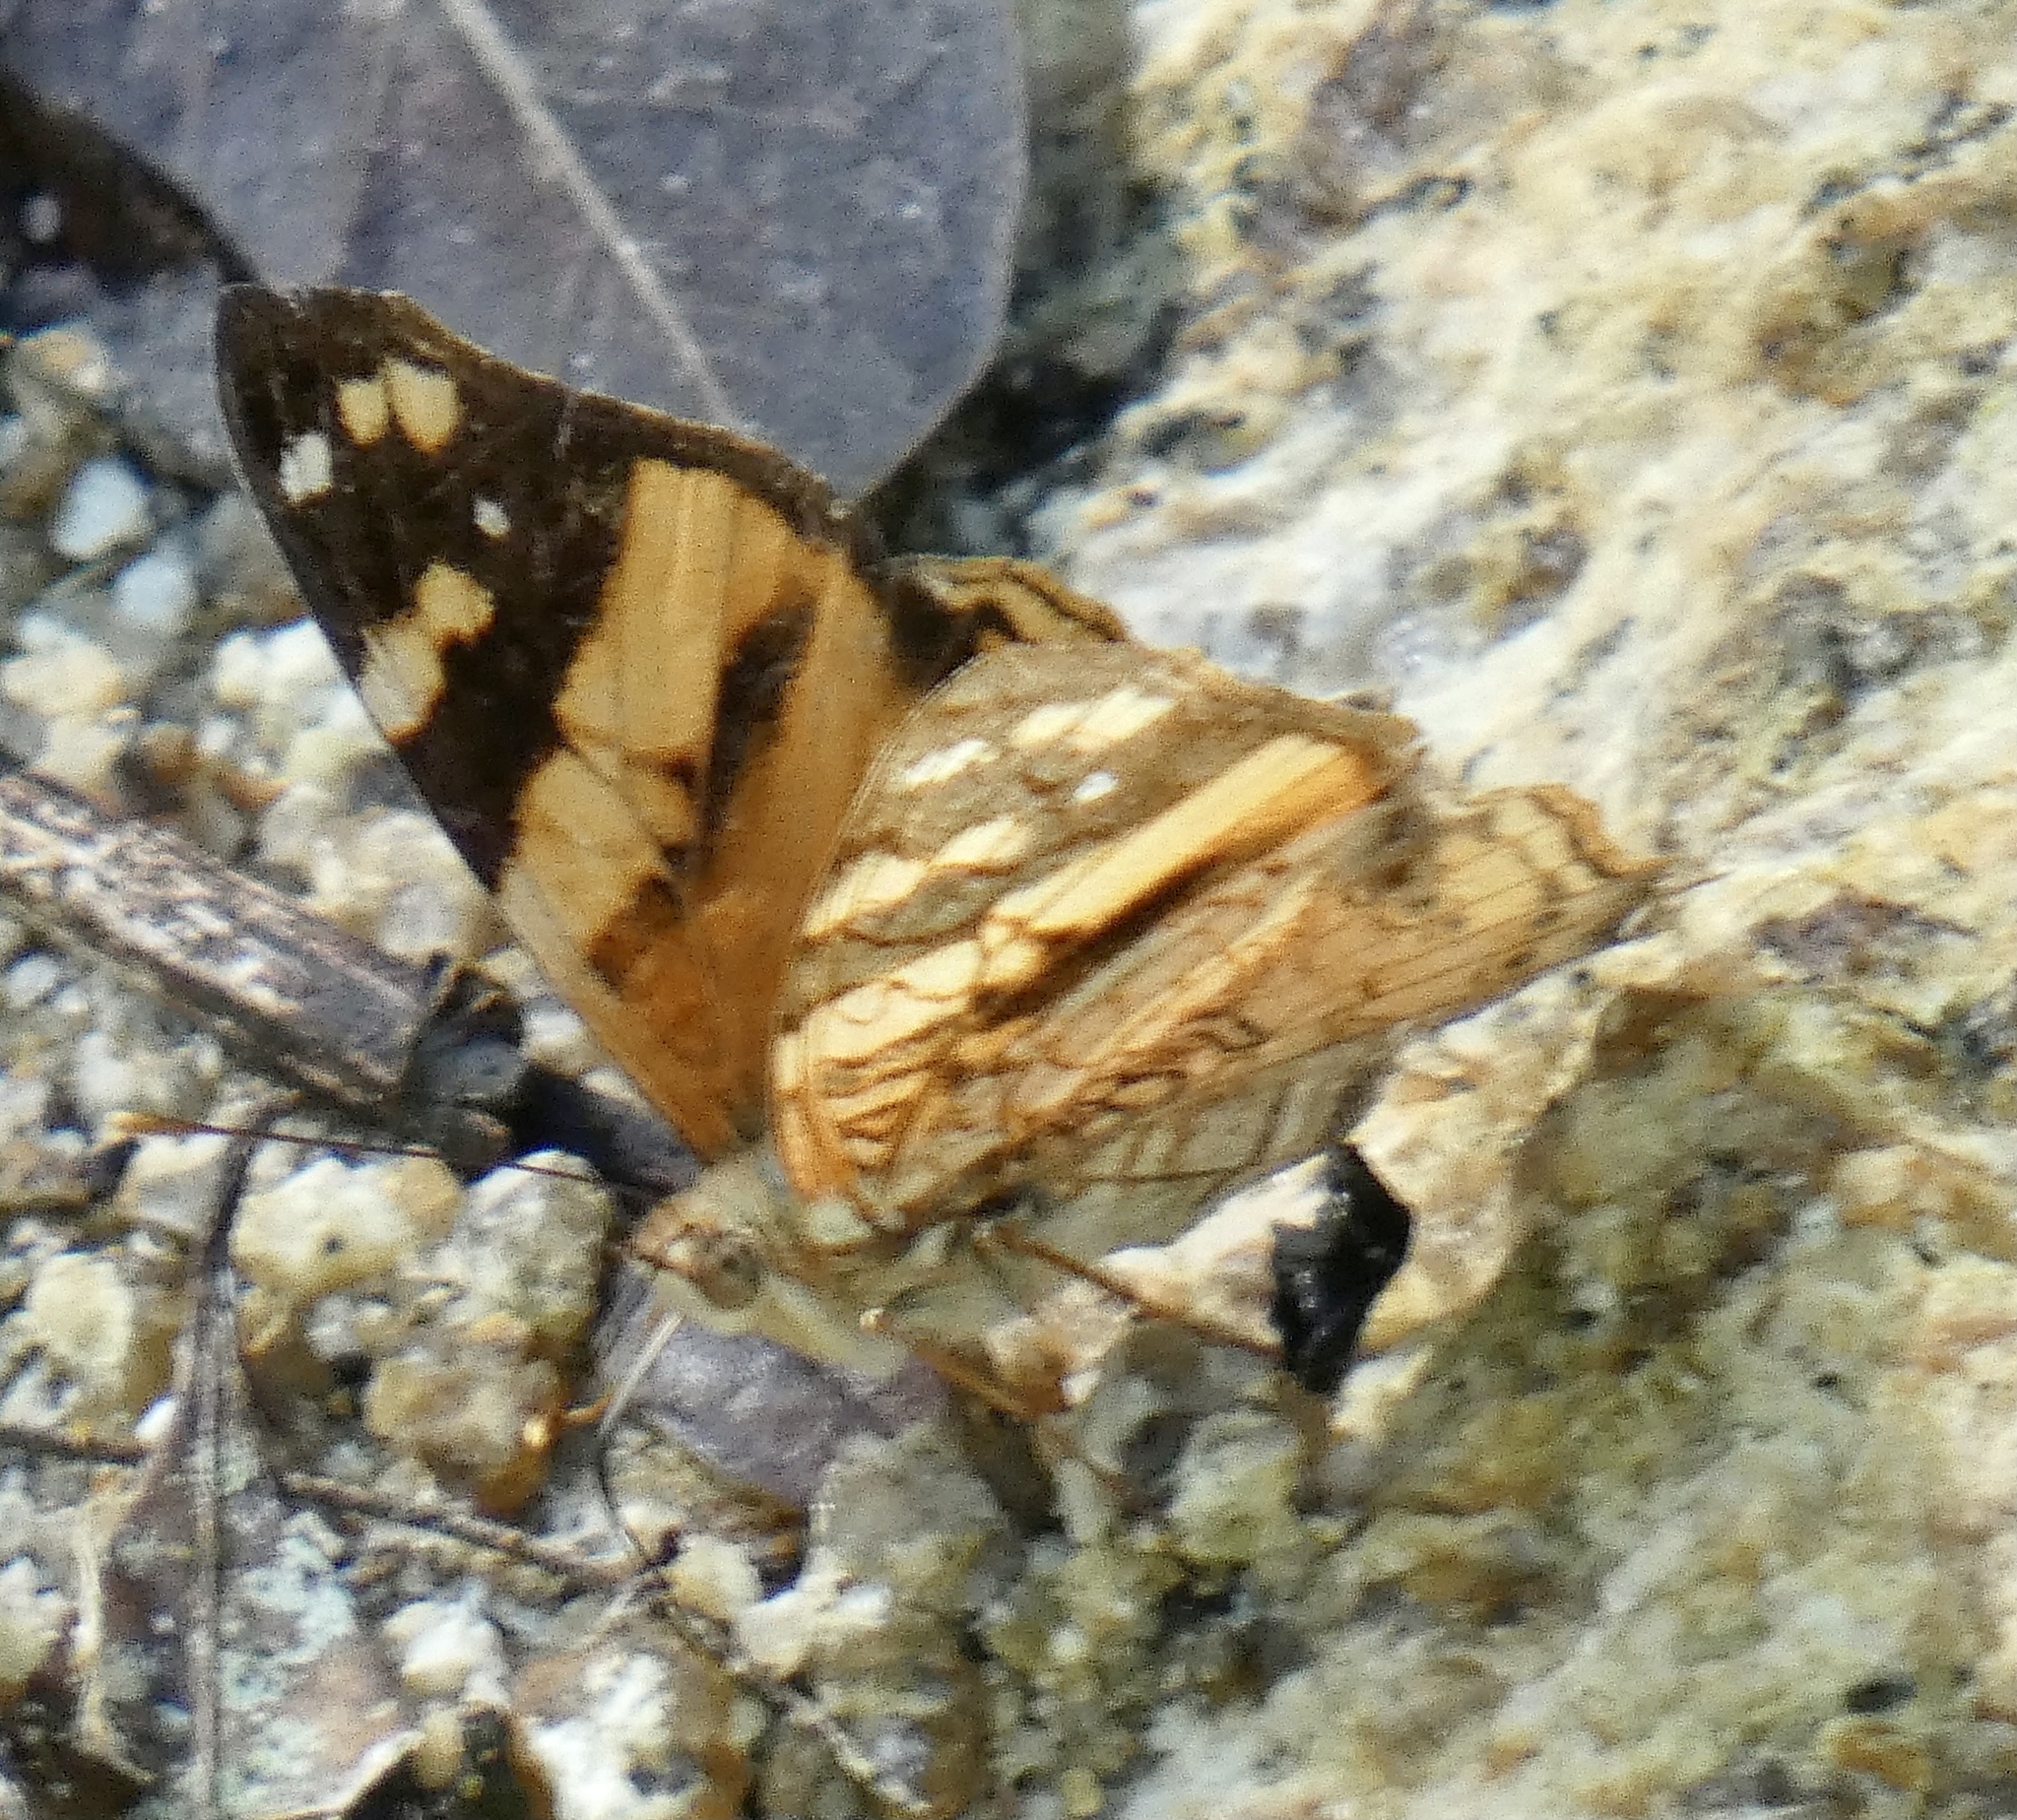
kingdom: Animalia
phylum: Arthropoda
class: Insecta
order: Lepidoptera
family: Nymphalidae
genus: Hypanartia
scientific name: Hypanartia lethe
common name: Orange mapwing
